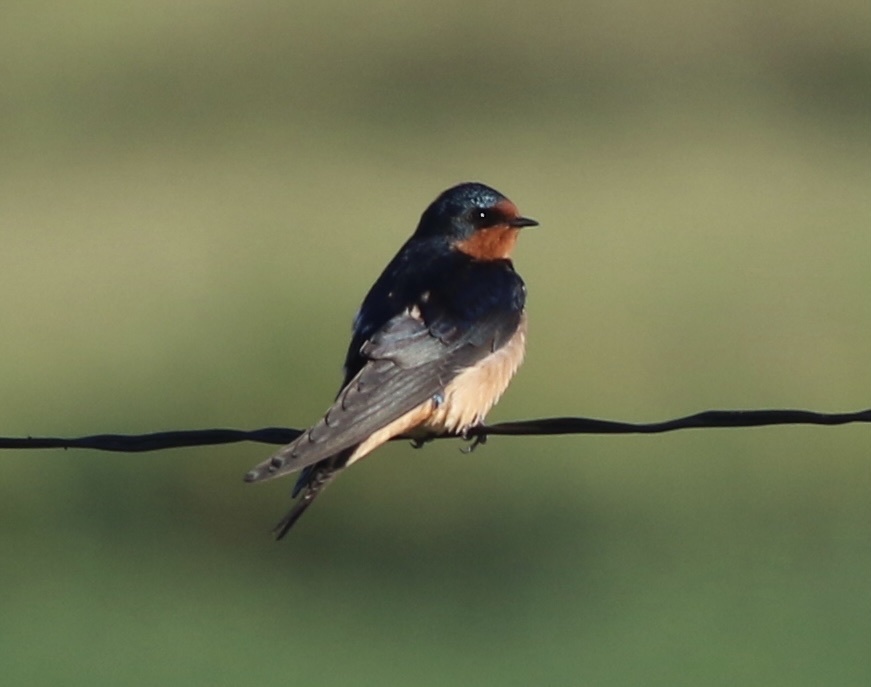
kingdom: Animalia
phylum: Chordata
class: Aves
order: Passeriformes
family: Hirundinidae
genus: Hirundo
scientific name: Hirundo rustica
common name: Barn swallow
